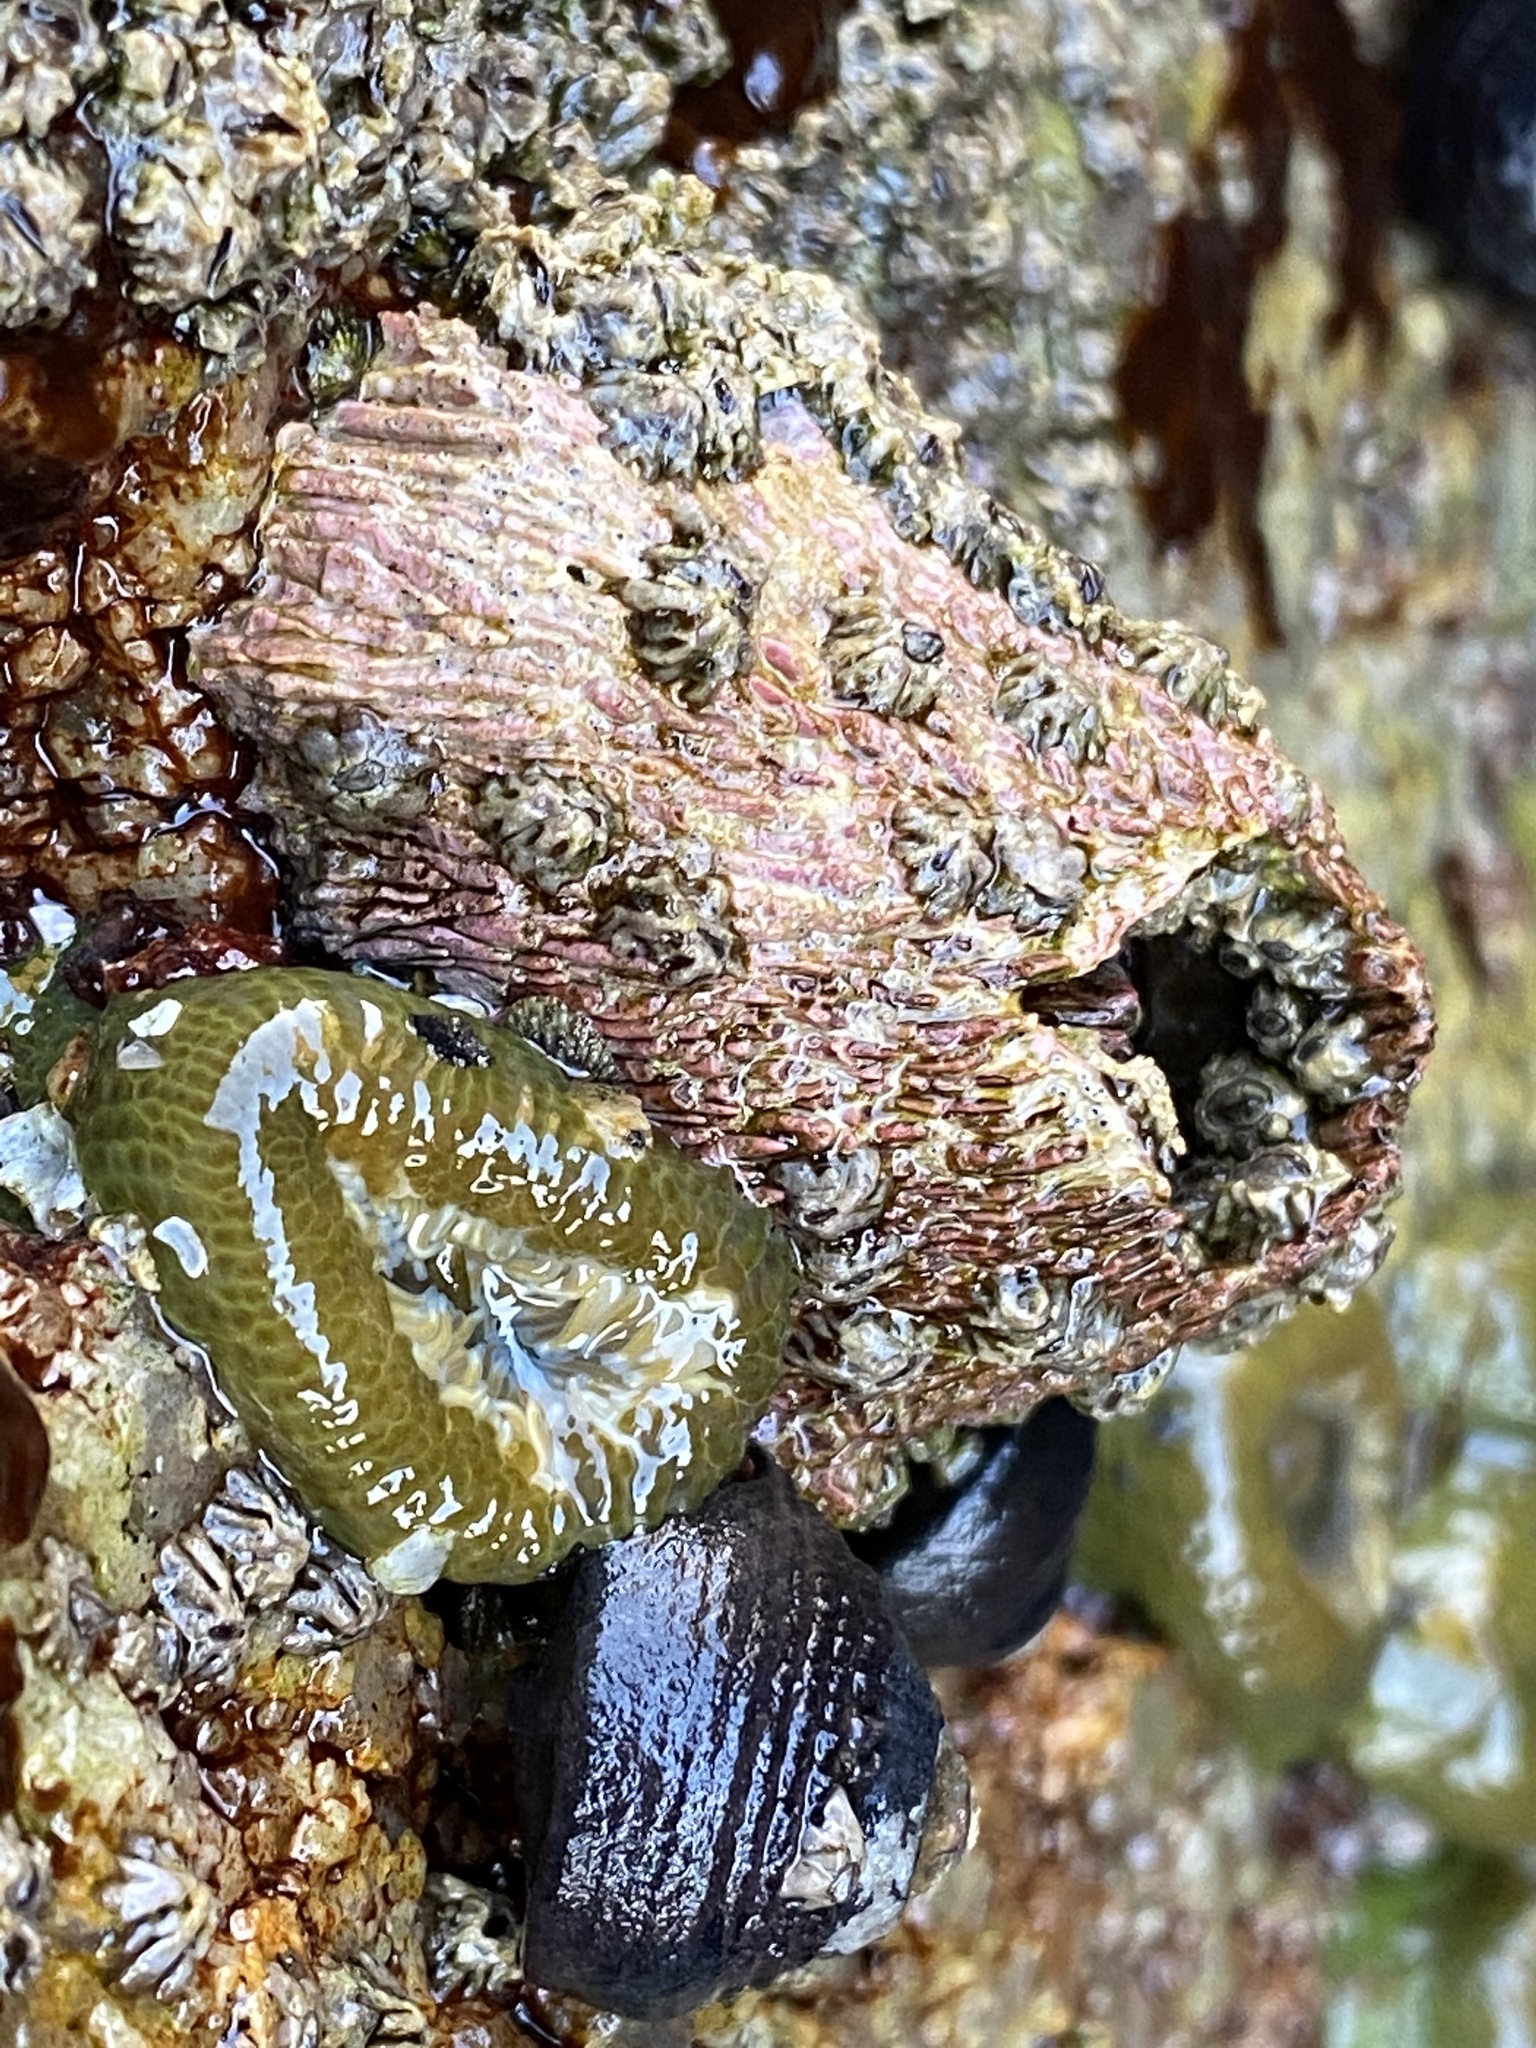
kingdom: Animalia
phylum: Arthropoda
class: Maxillopoda
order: Sessilia
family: Tetraclitidae
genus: Tetraclita
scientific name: Tetraclita rubescens
